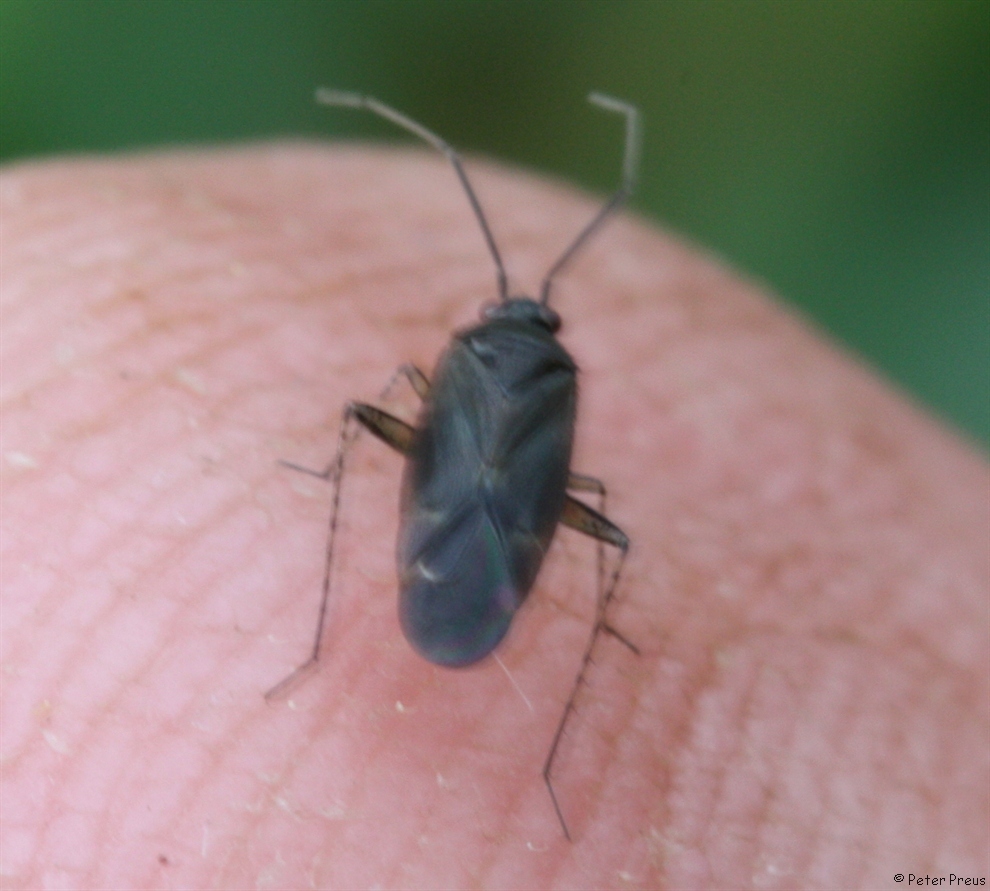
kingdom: Animalia
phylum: Arthropoda
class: Insecta
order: Hemiptera
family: Miridae
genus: Plagiognathus
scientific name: Plagiognathus arbustorum
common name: Plant bug
